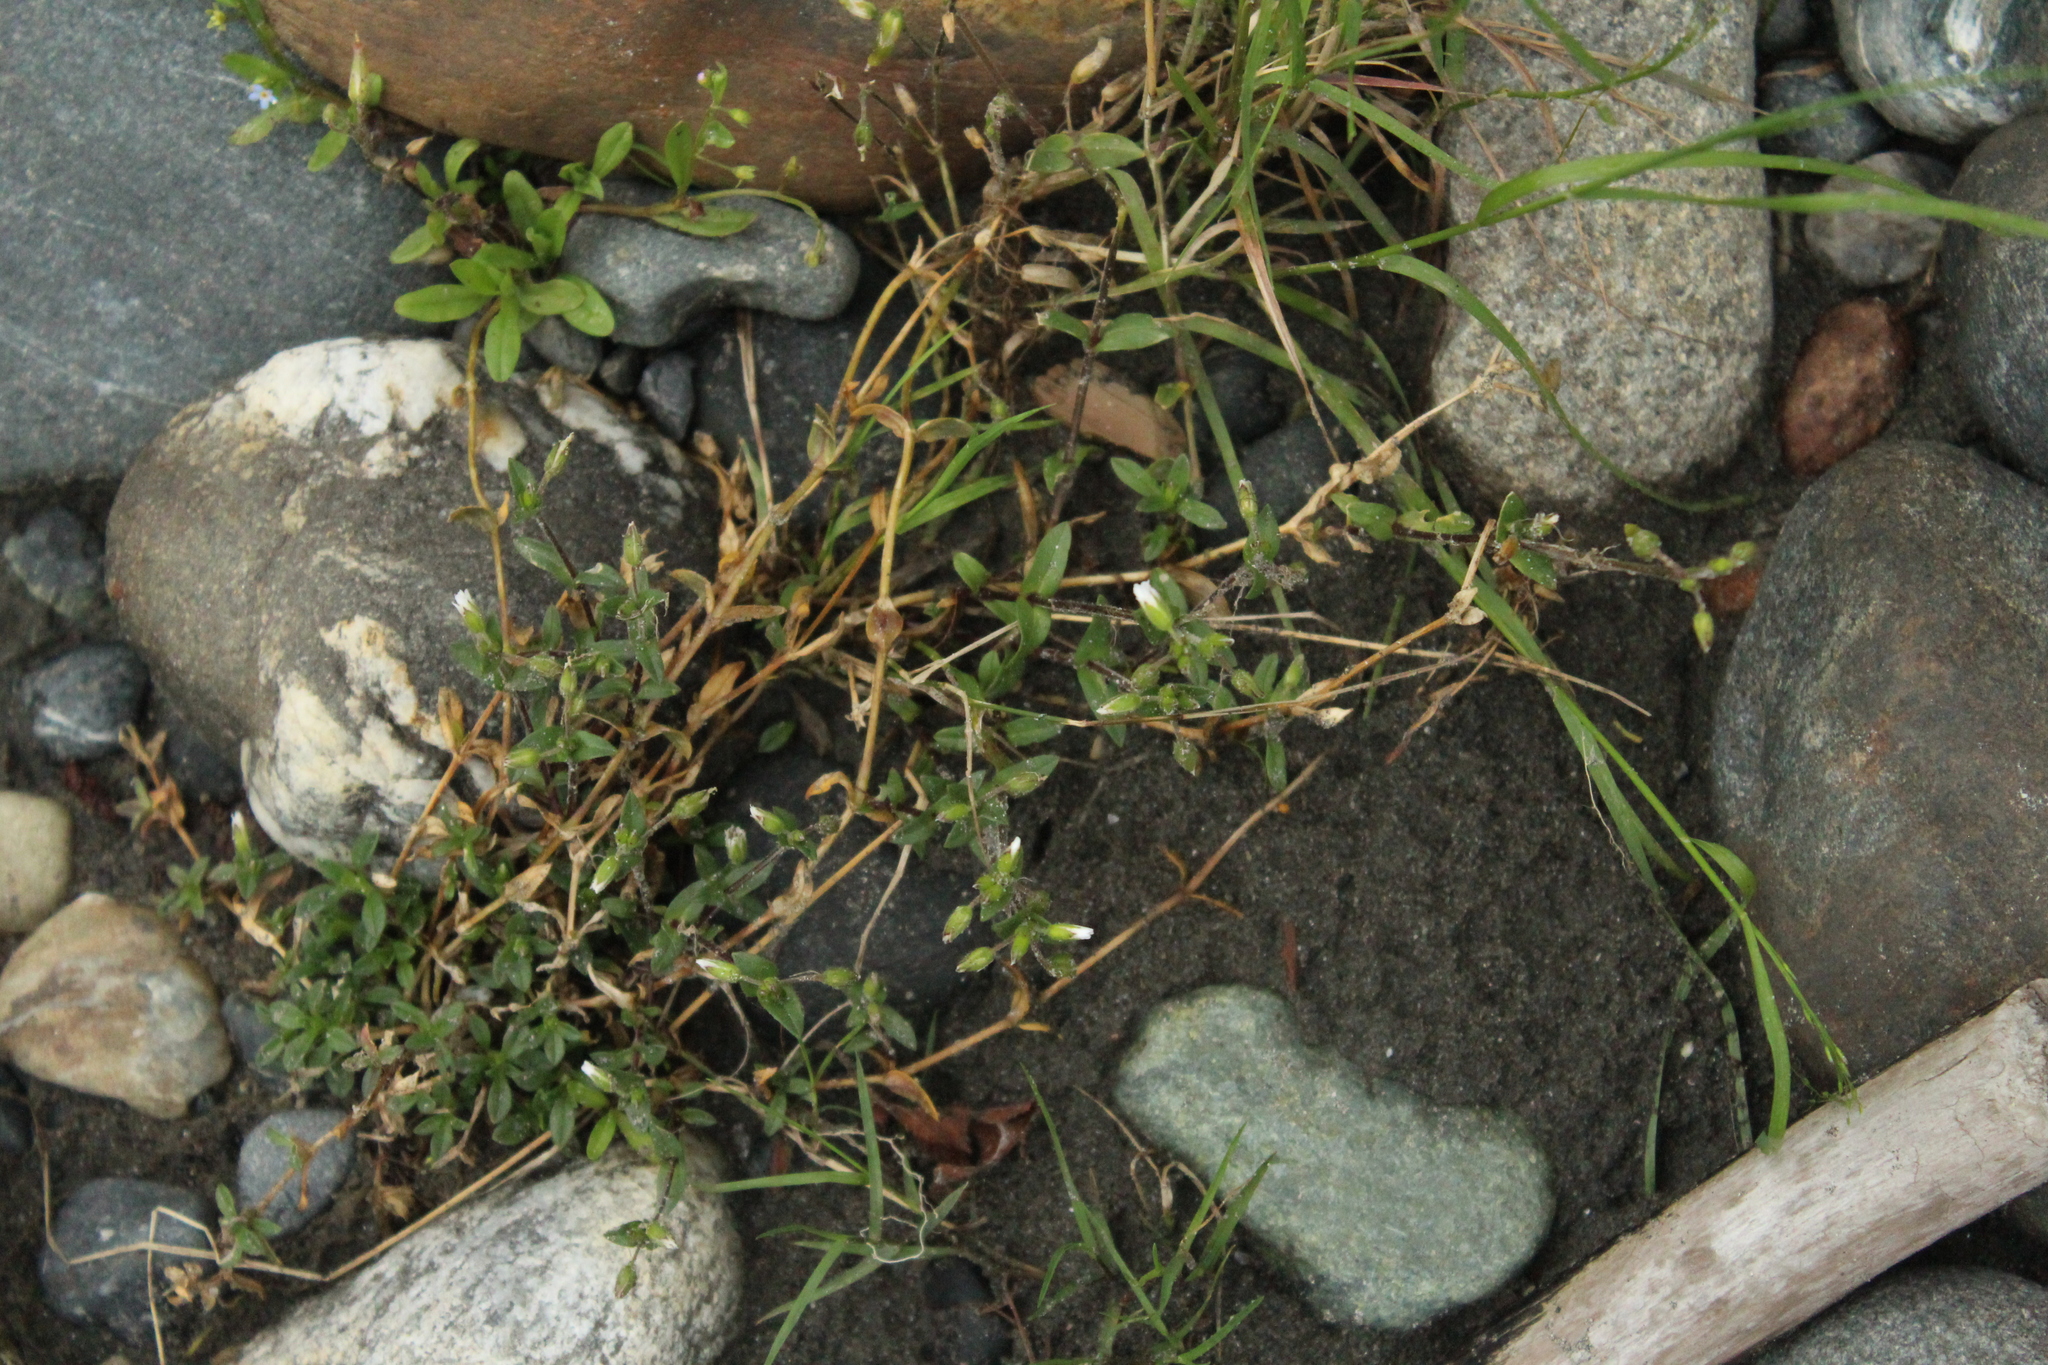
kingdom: Plantae
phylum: Tracheophyta
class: Magnoliopsida
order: Caryophyllales
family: Caryophyllaceae
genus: Cerastium
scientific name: Cerastium holosteoides
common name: Big chickweed
